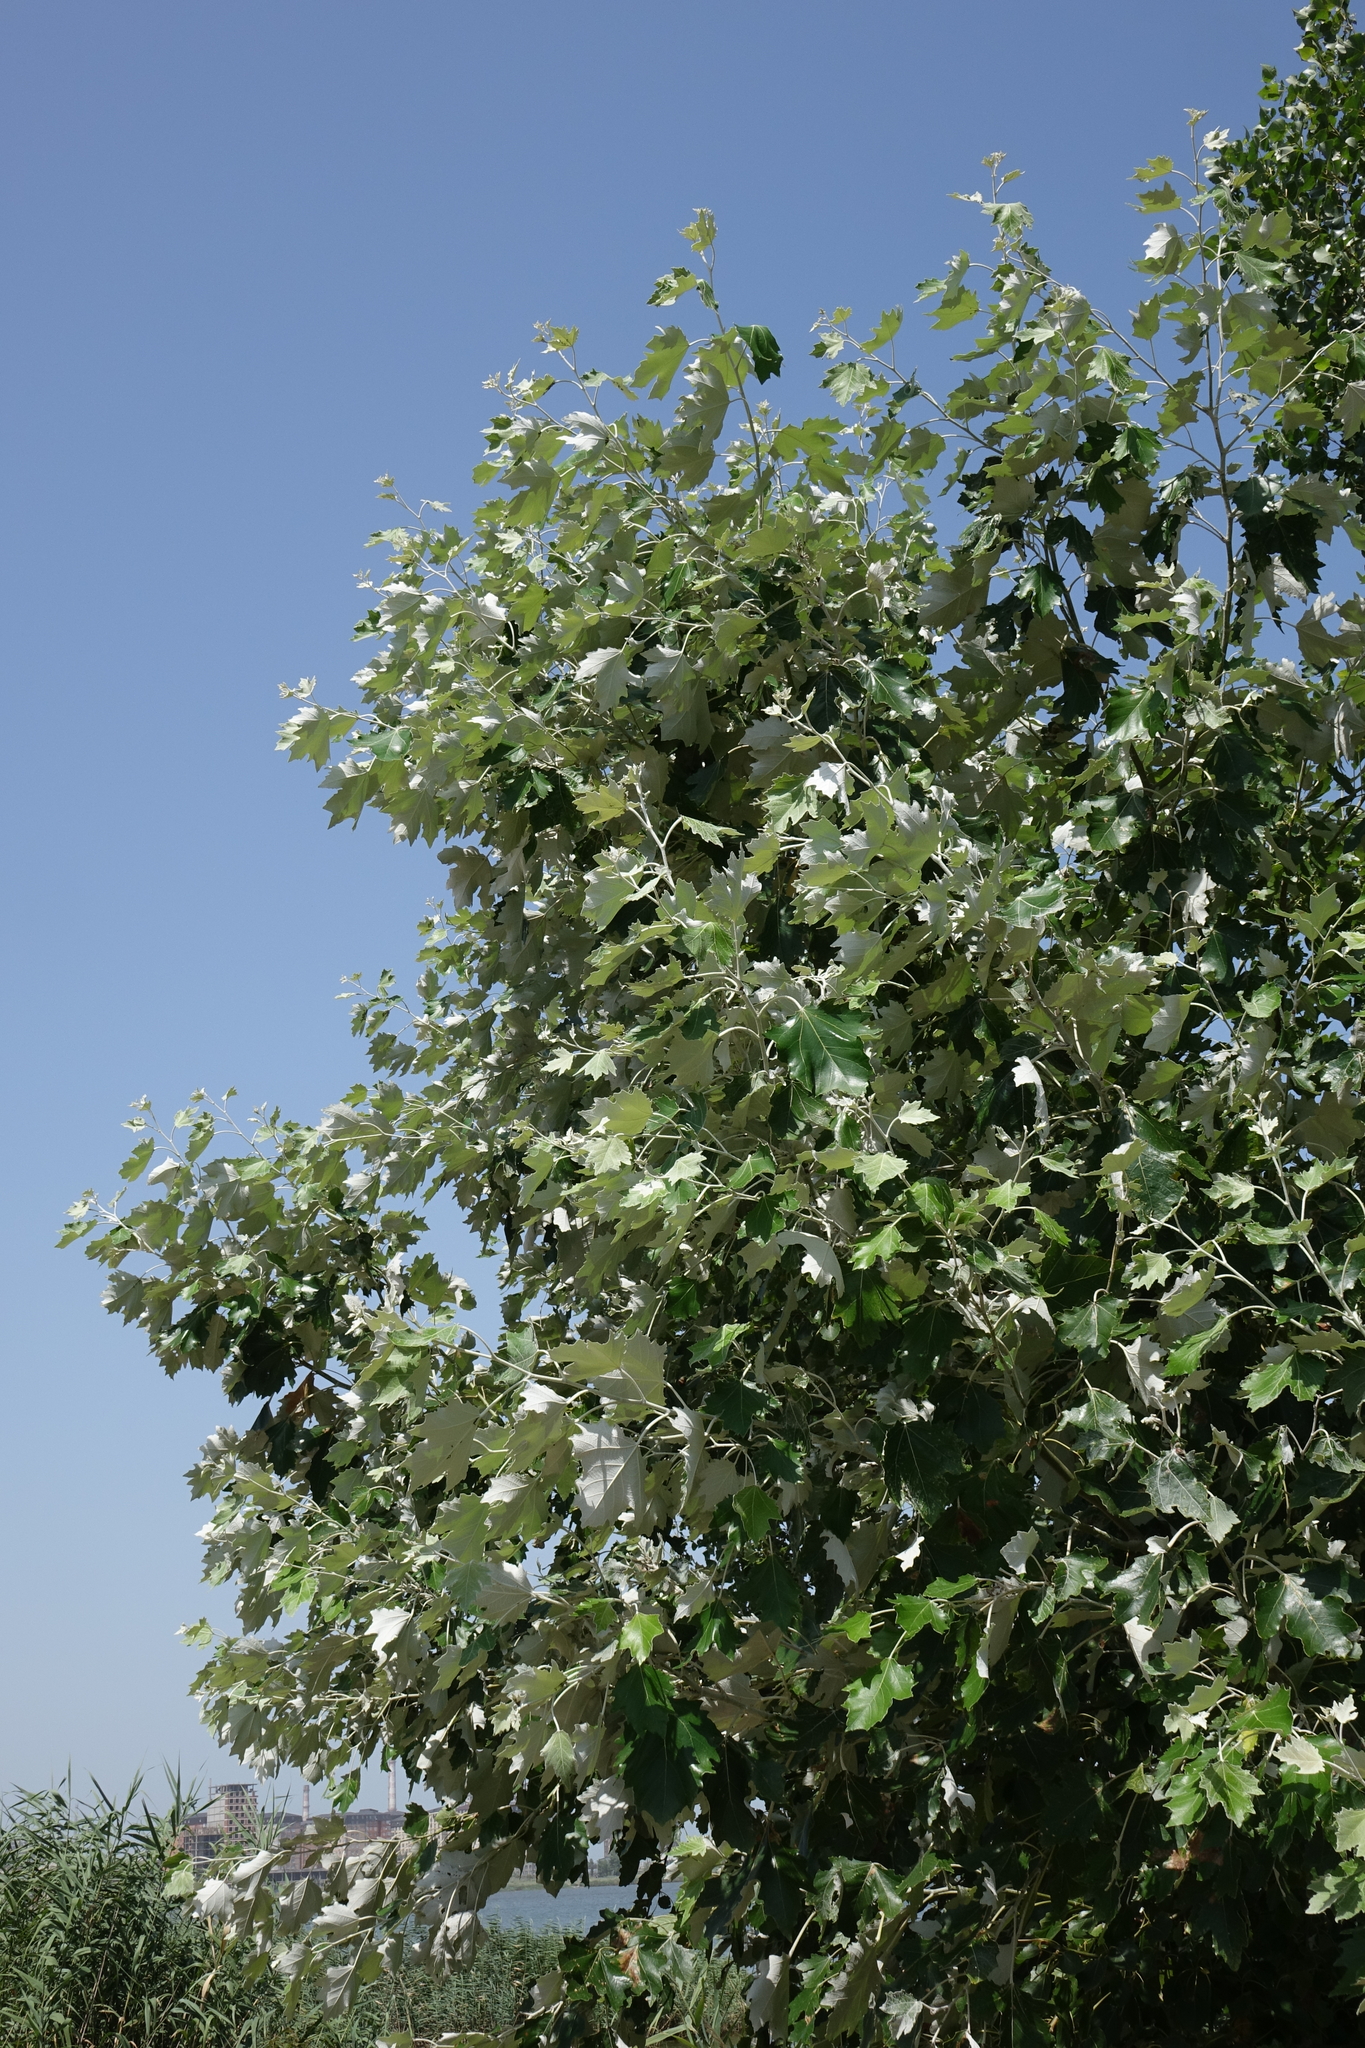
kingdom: Plantae
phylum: Tracheophyta
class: Magnoliopsida
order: Malpighiales
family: Salicaceae
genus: Populus
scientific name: Populus alba
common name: White poplar
